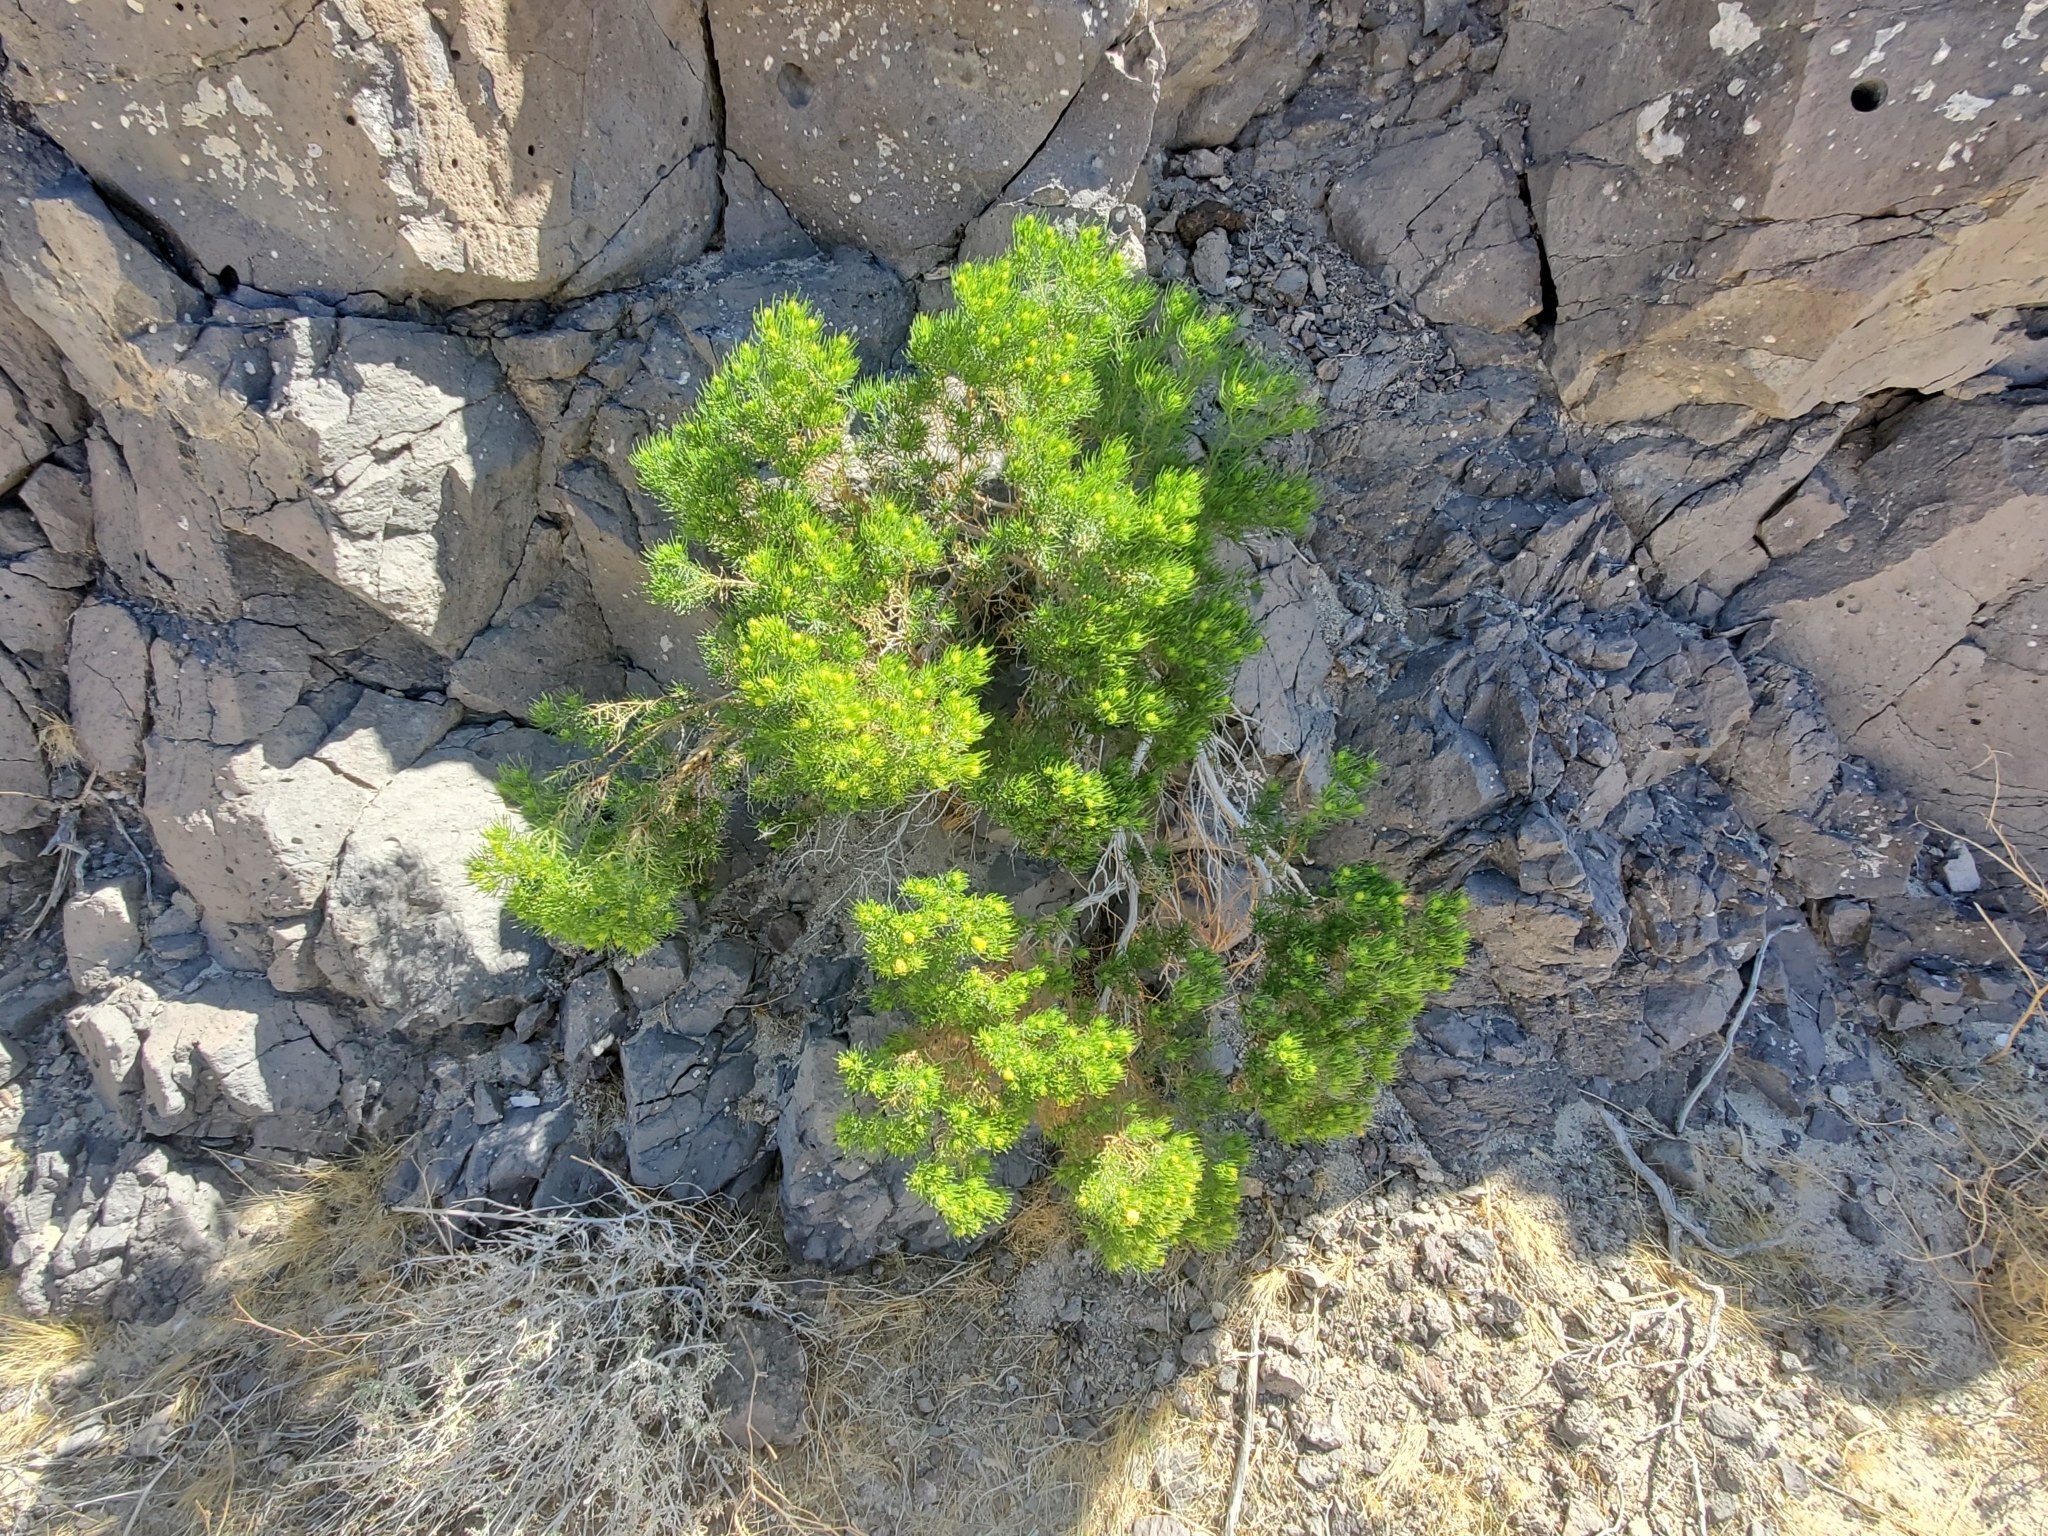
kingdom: Plantae
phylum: Tracheophyta
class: Magnoliopsida
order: Asterales
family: Asteraceae
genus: Peucephyllum
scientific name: Peucephyllum schottii
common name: Pygmy-cedar
